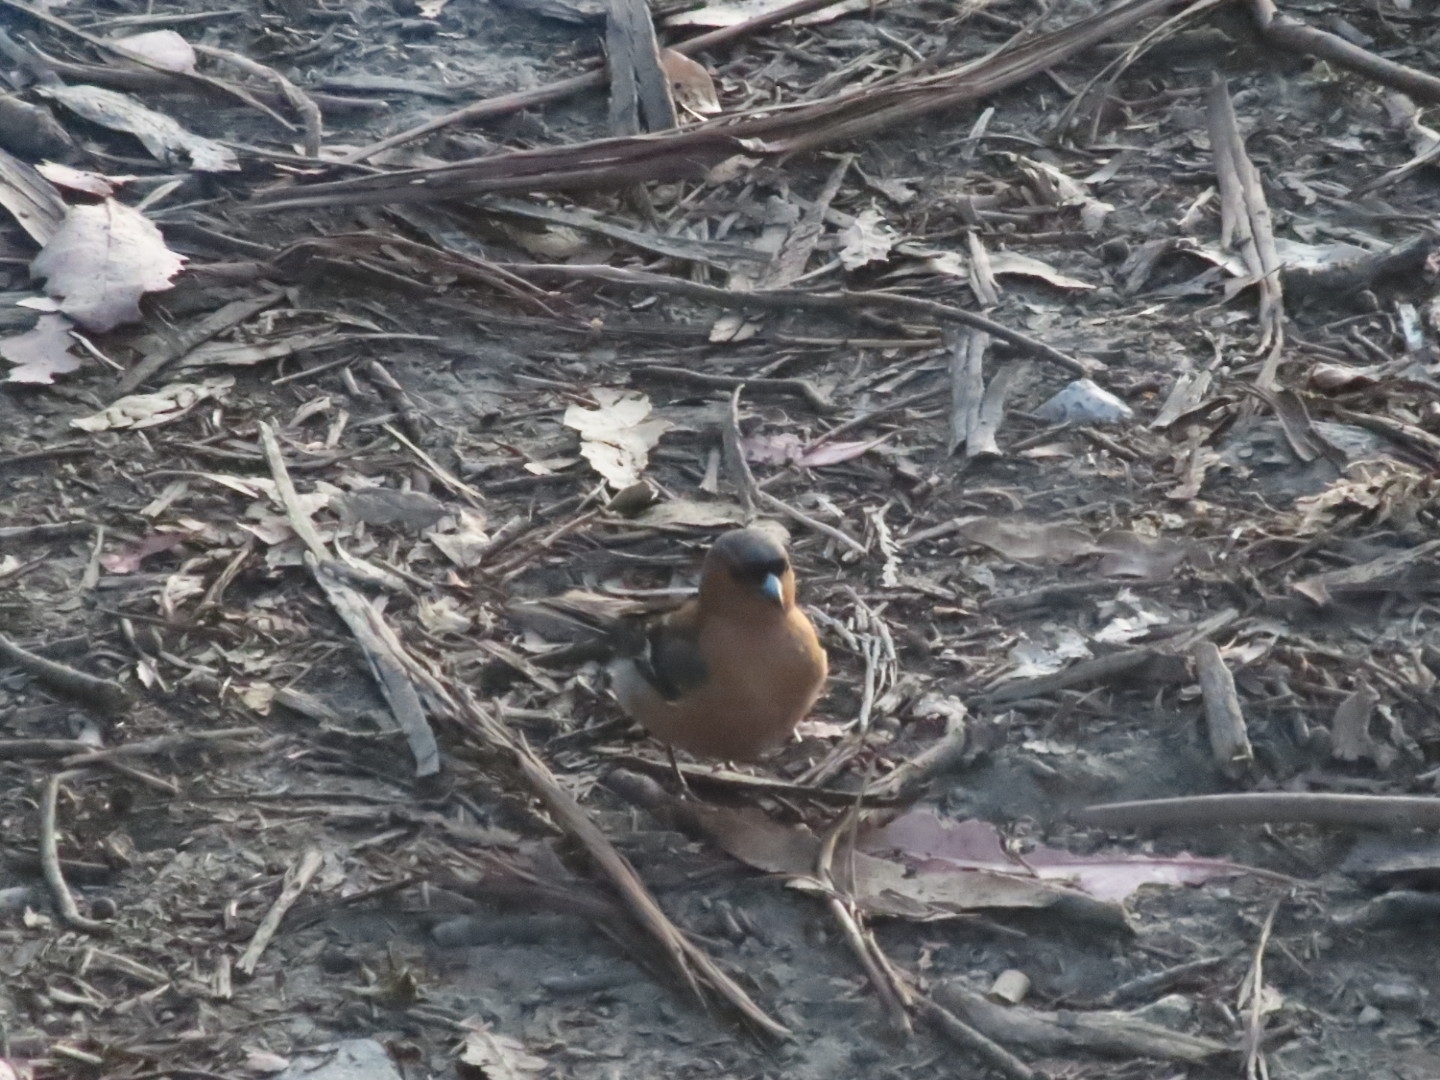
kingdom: Animalia
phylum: Chordata
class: Aves
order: Passeriformes
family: Fringillidae
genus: Fringilla
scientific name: Fringilla coelebs
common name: Common chaffinch
